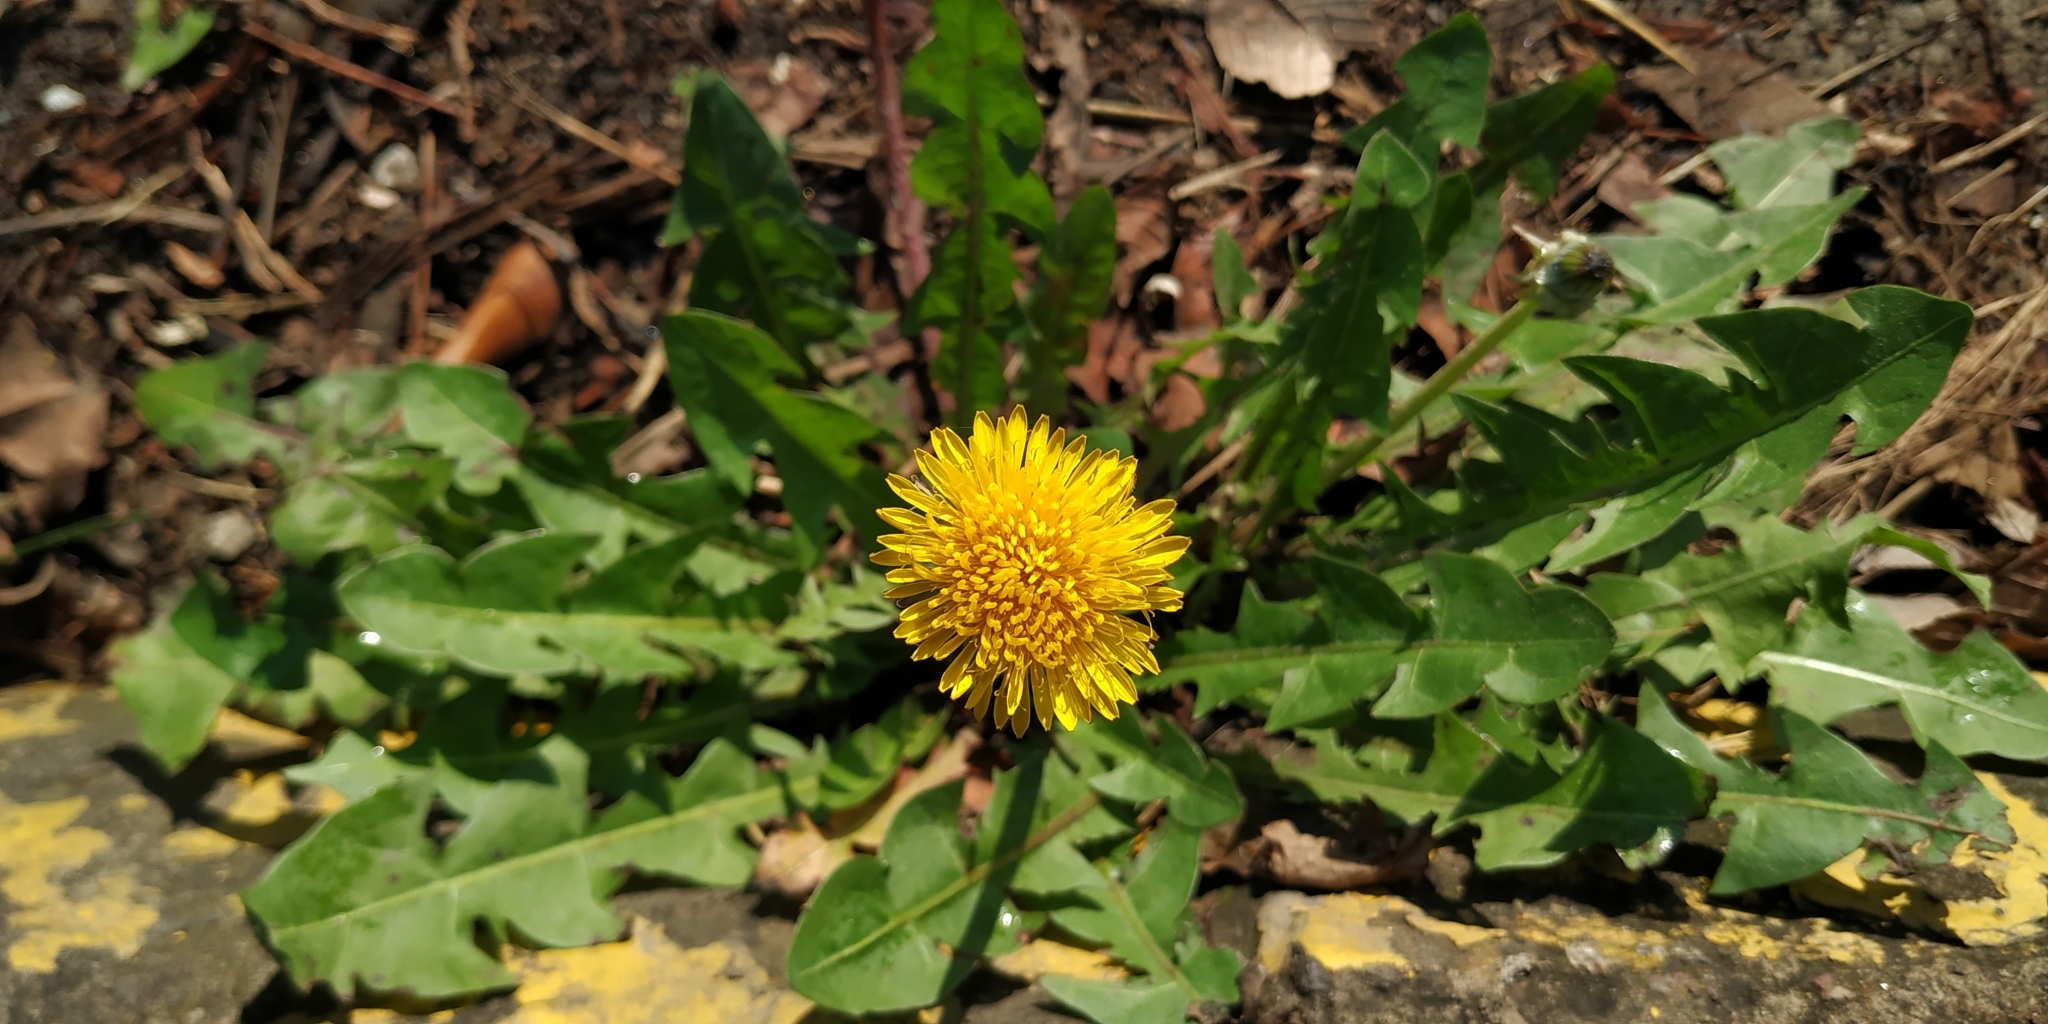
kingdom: Plantae
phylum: Tracheophyta
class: Magnoliopsida
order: Asterales
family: Asteraceae
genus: Taraxacum
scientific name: Taraxacum officinale
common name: Common dandelion
